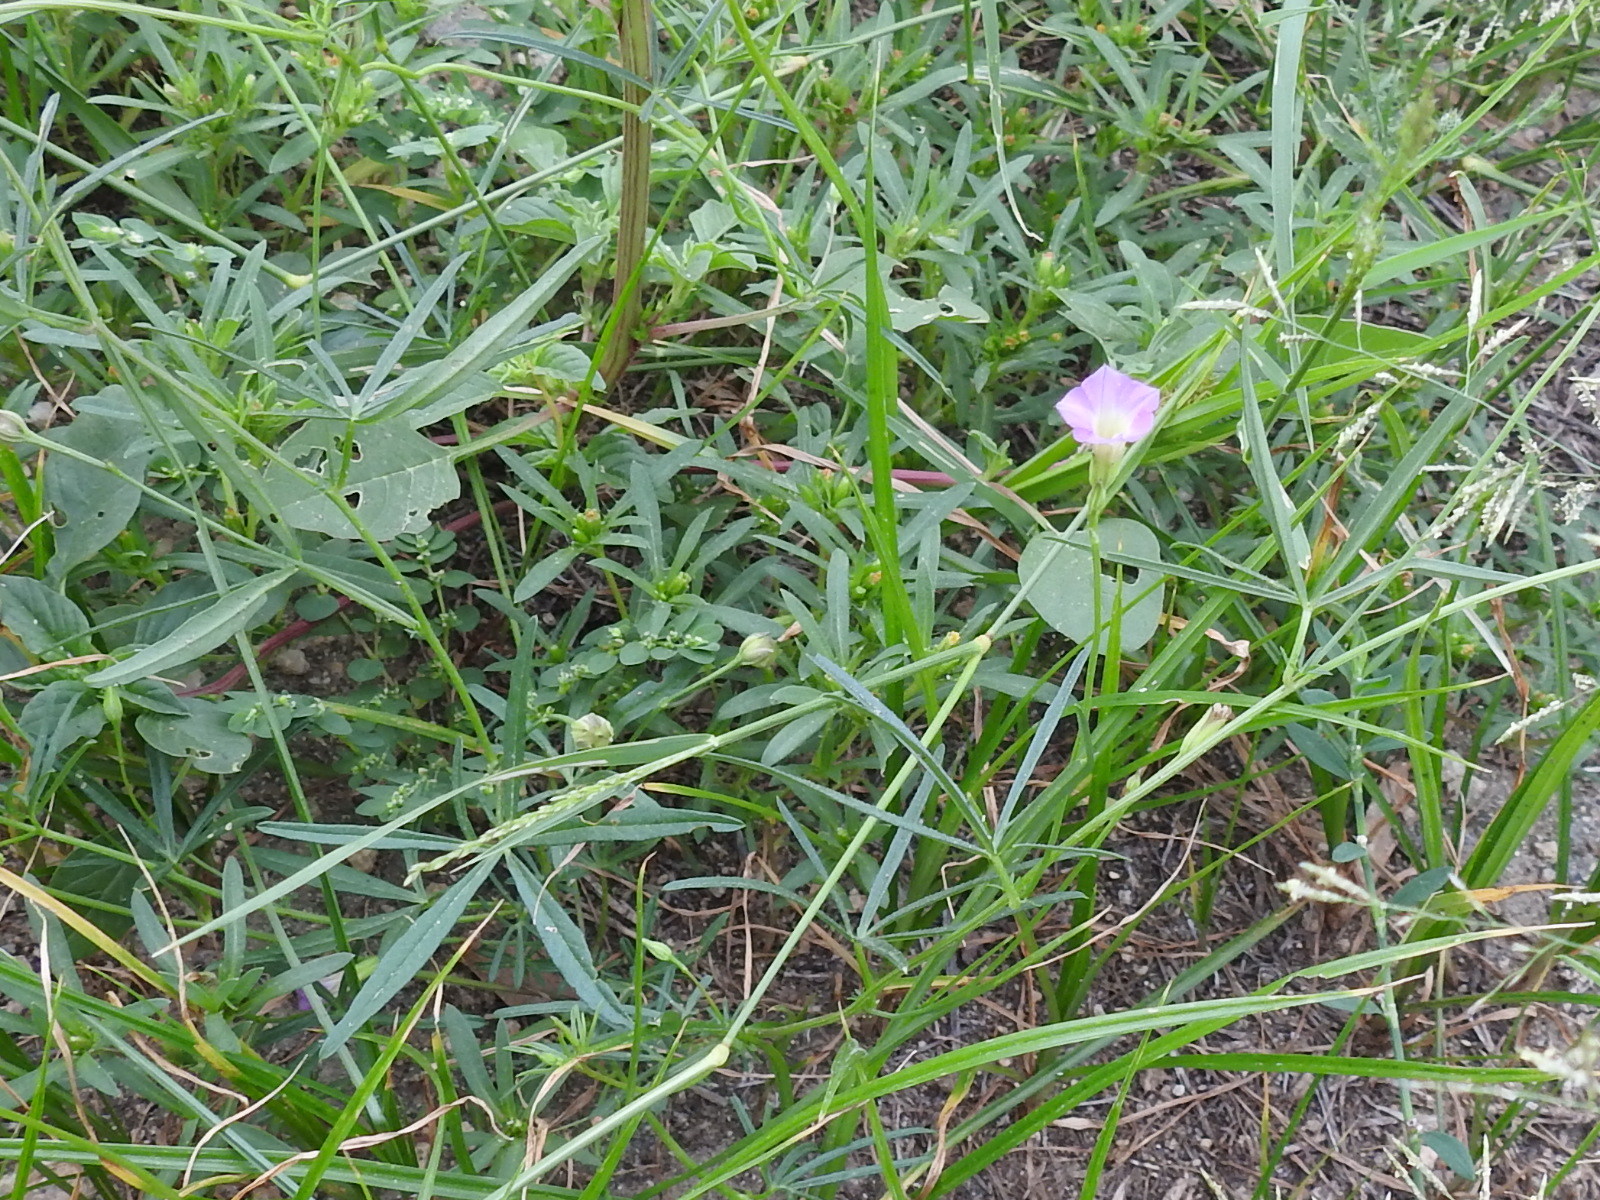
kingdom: Plantae
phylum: Tracheophyta
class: Magnoliopsida
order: Solanales
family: Convolvulaceae
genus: Ipomoea
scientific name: Ipomoea costellata
